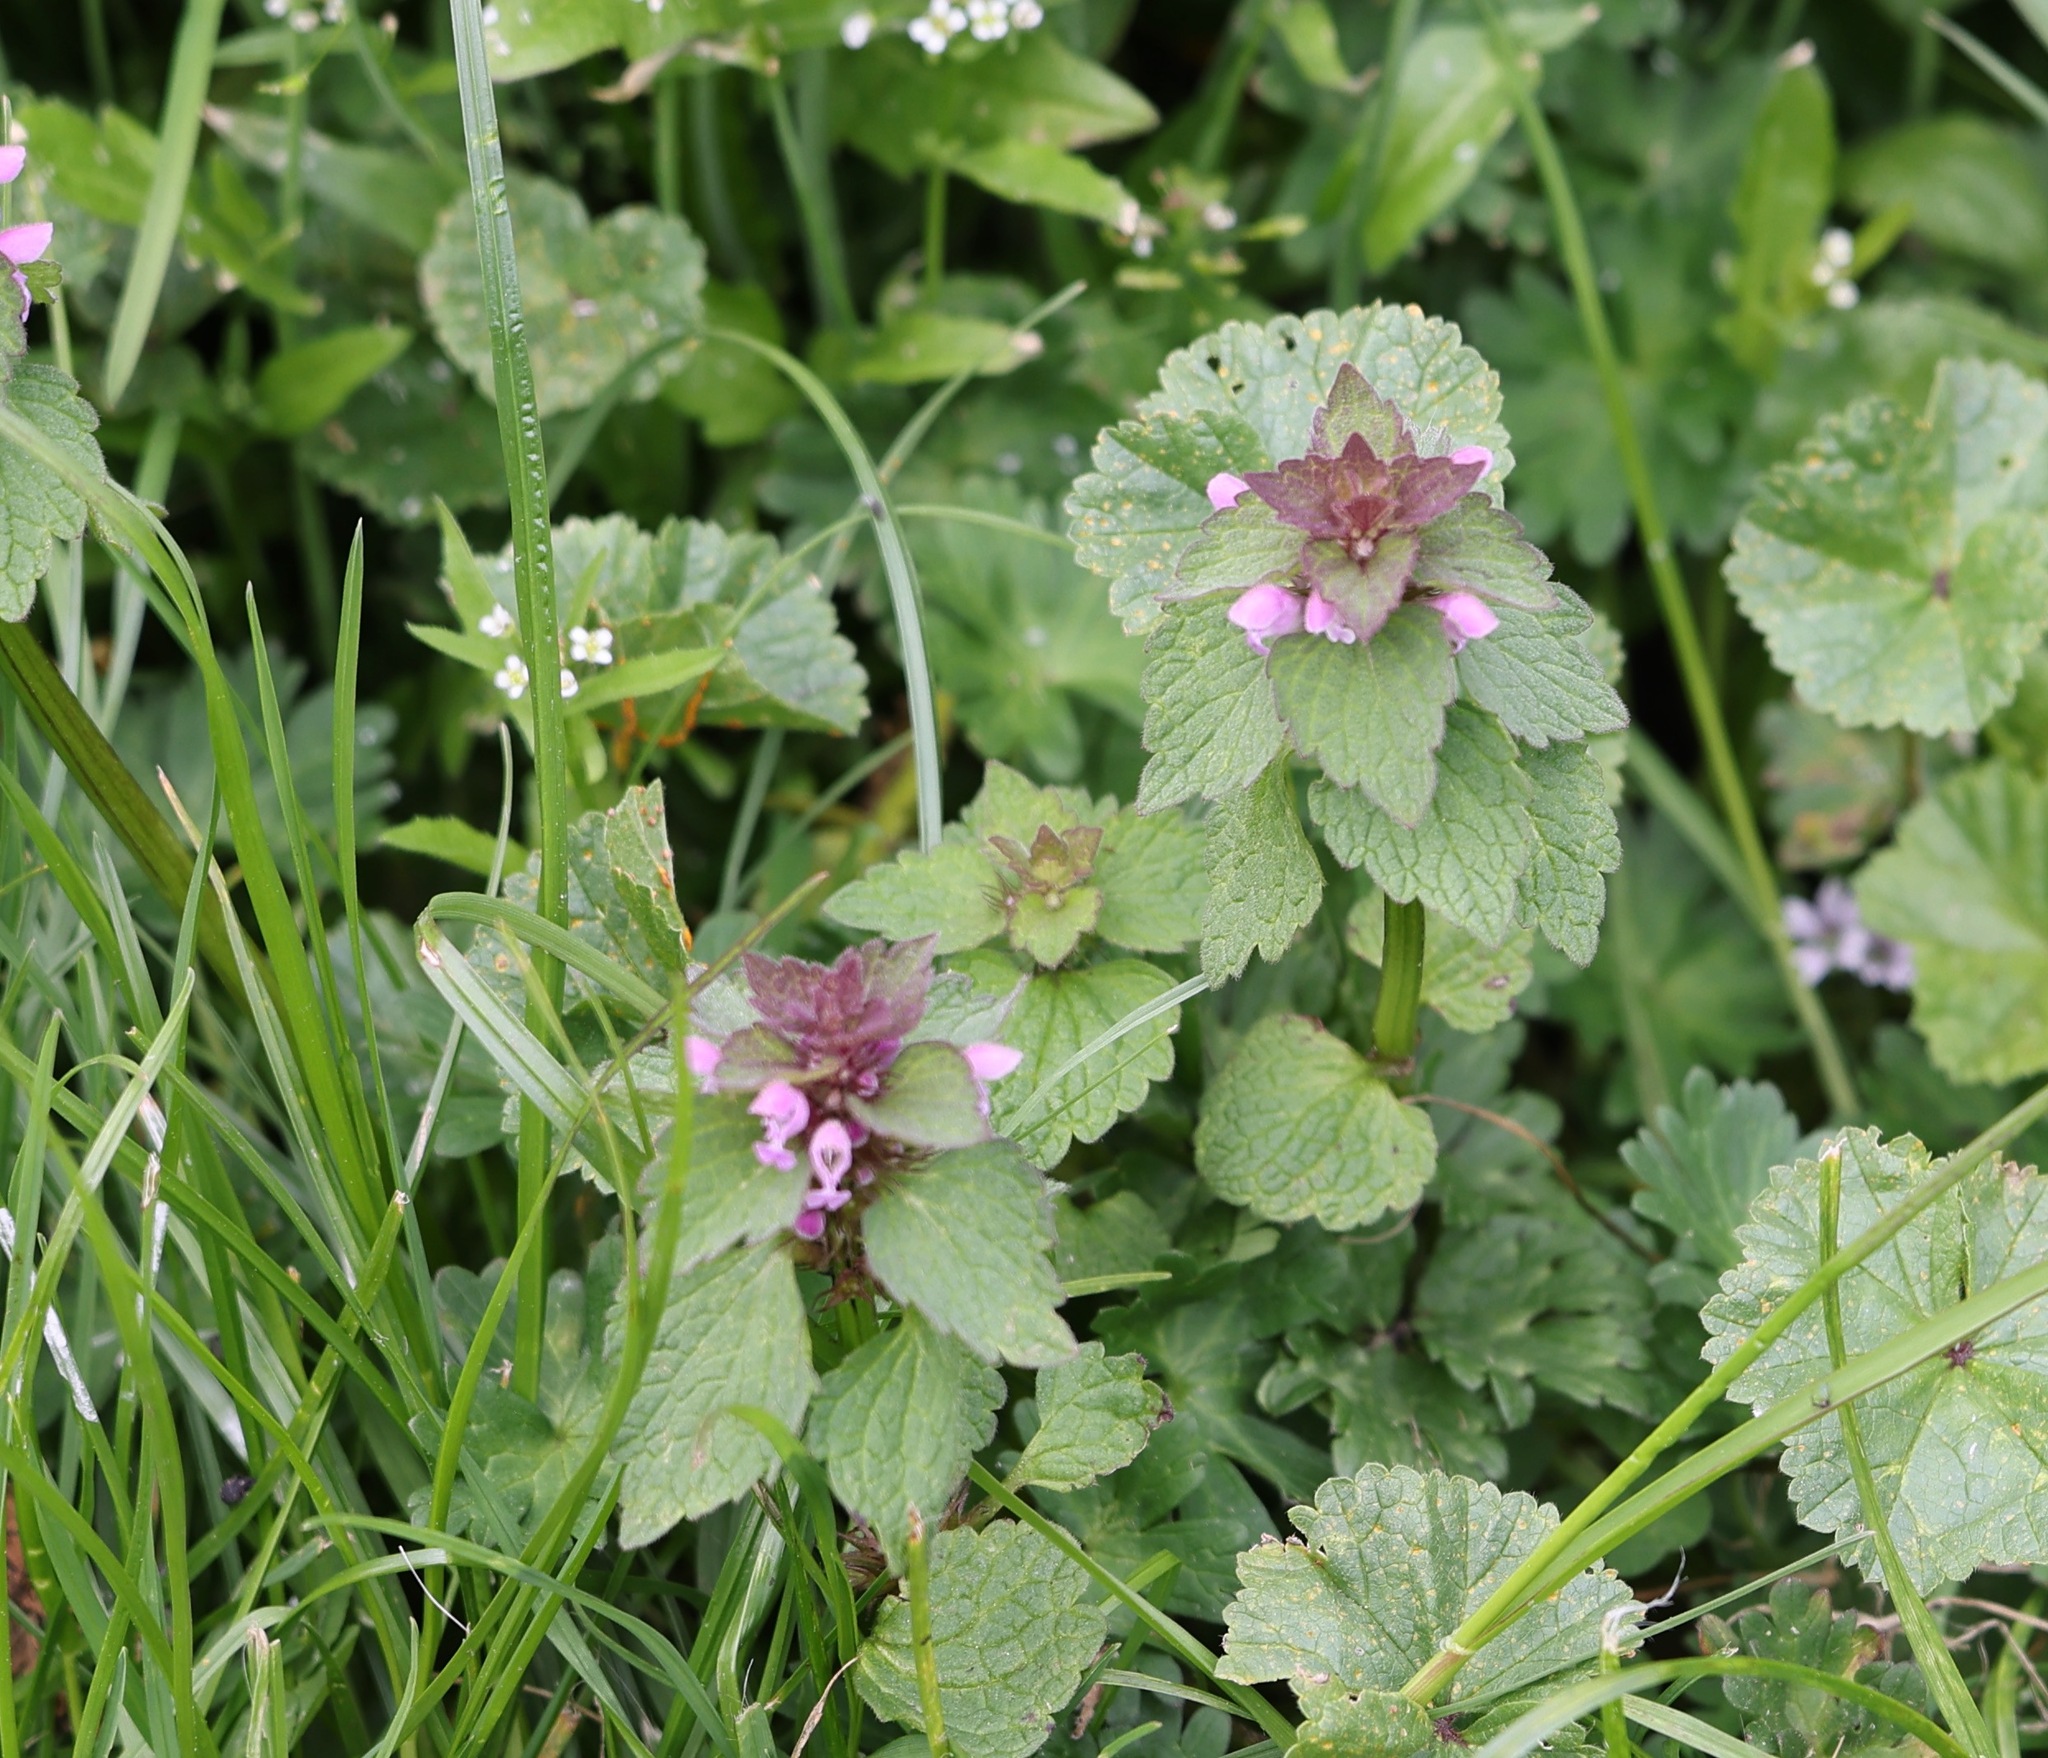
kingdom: Plantae
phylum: Tracheophyta
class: Magnoliopsida
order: Lamiales
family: Lamiaceae
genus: Lamium
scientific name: Lamium purpureum
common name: Red dead-nettle
